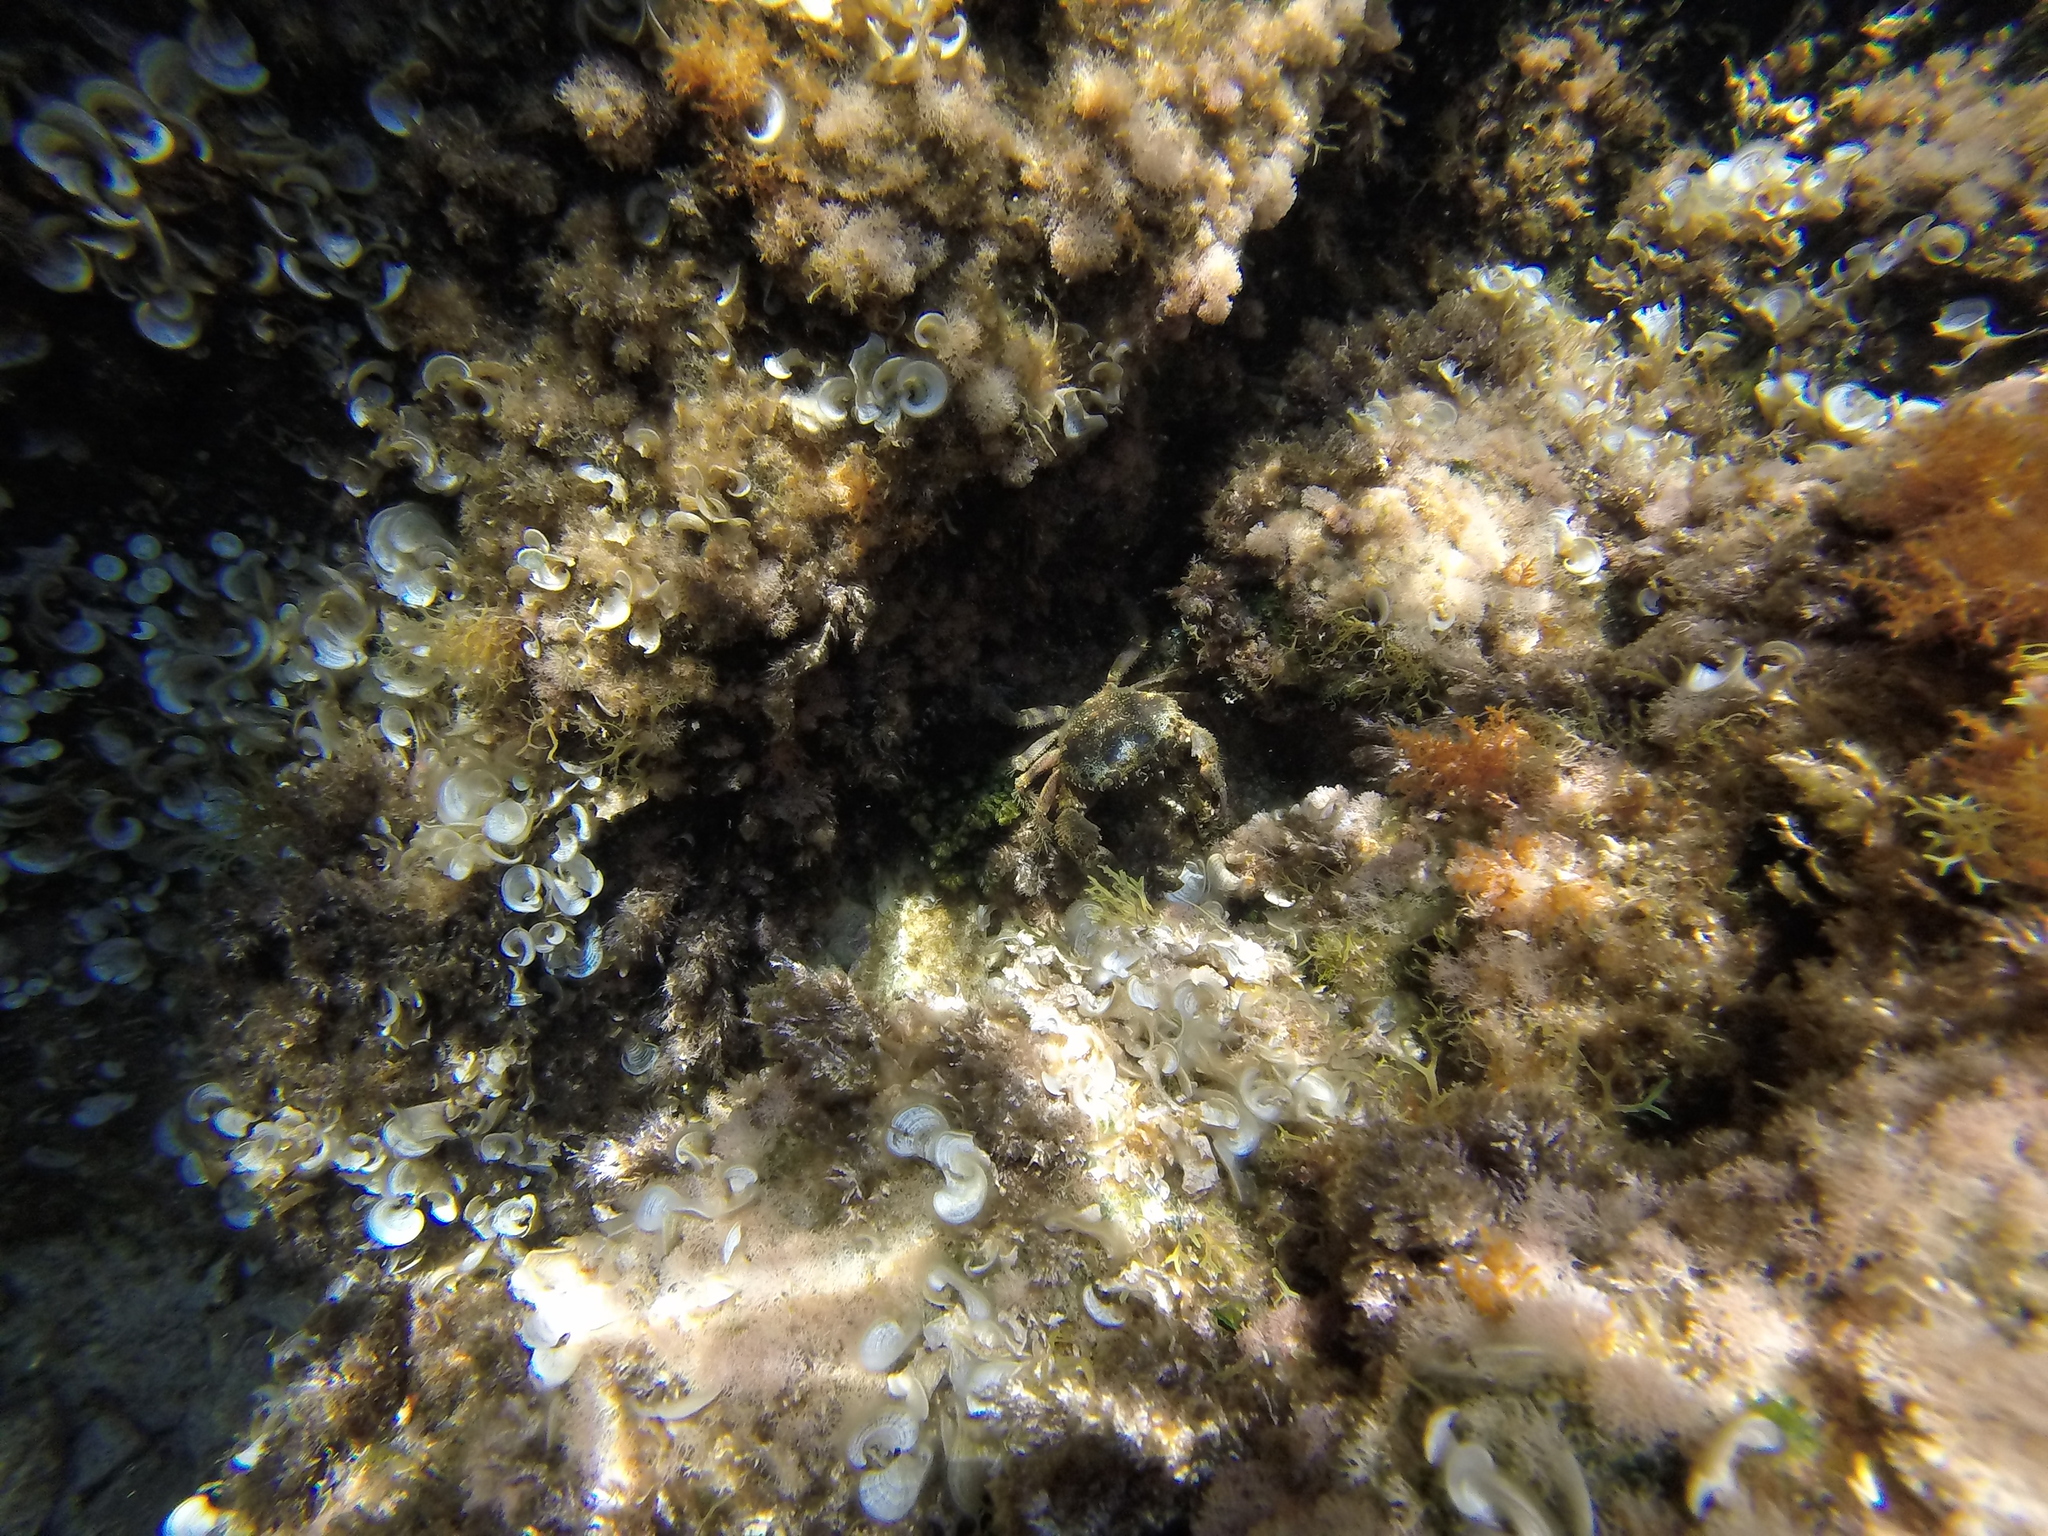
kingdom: Animalia
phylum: Arthropoda
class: Malacostraca
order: Decapoda
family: Eriphiidae
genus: Eriphia
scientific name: Eriphia verrucosa
